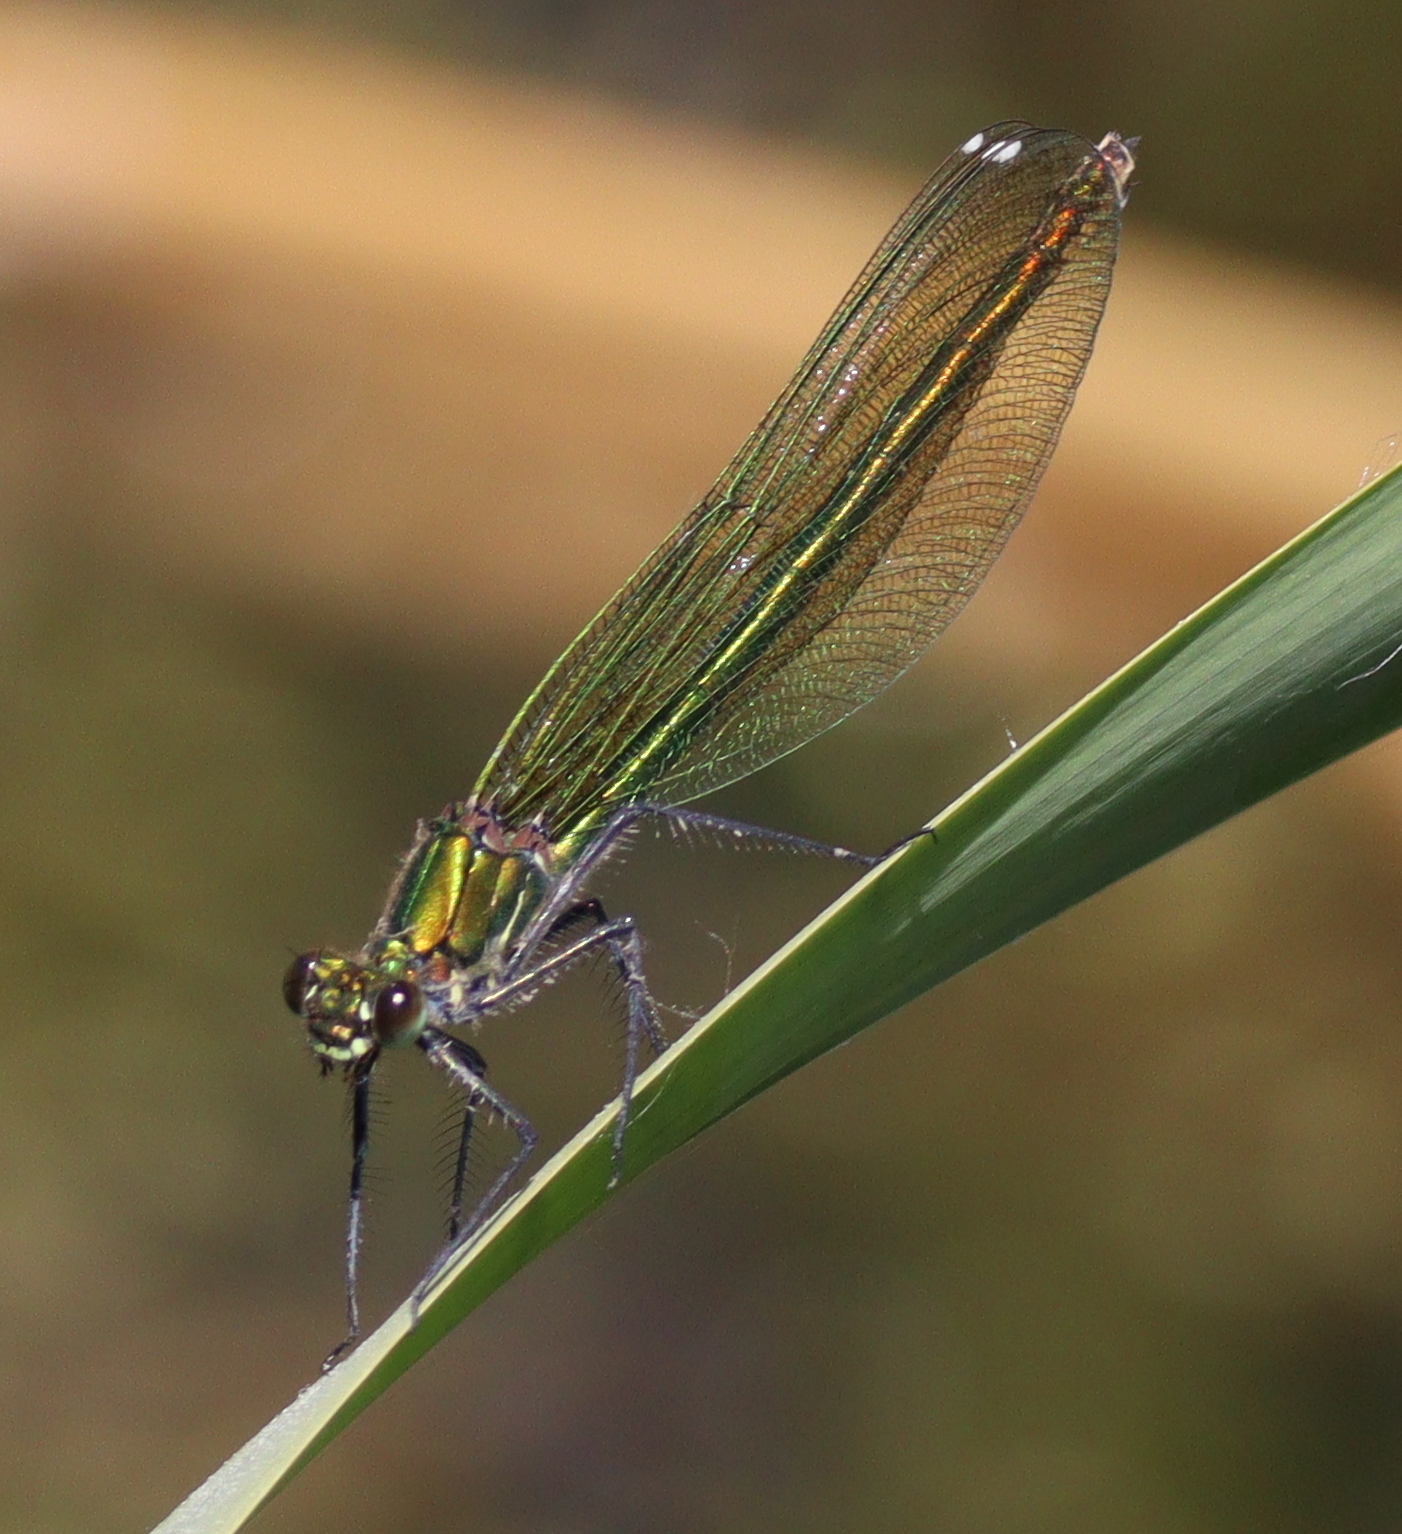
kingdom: Animalia
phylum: Arthropoda
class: Insecta
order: Odonata
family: Calopterygidae
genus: Calopteryx
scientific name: Calopteryx splendens
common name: Banded demoiselle
